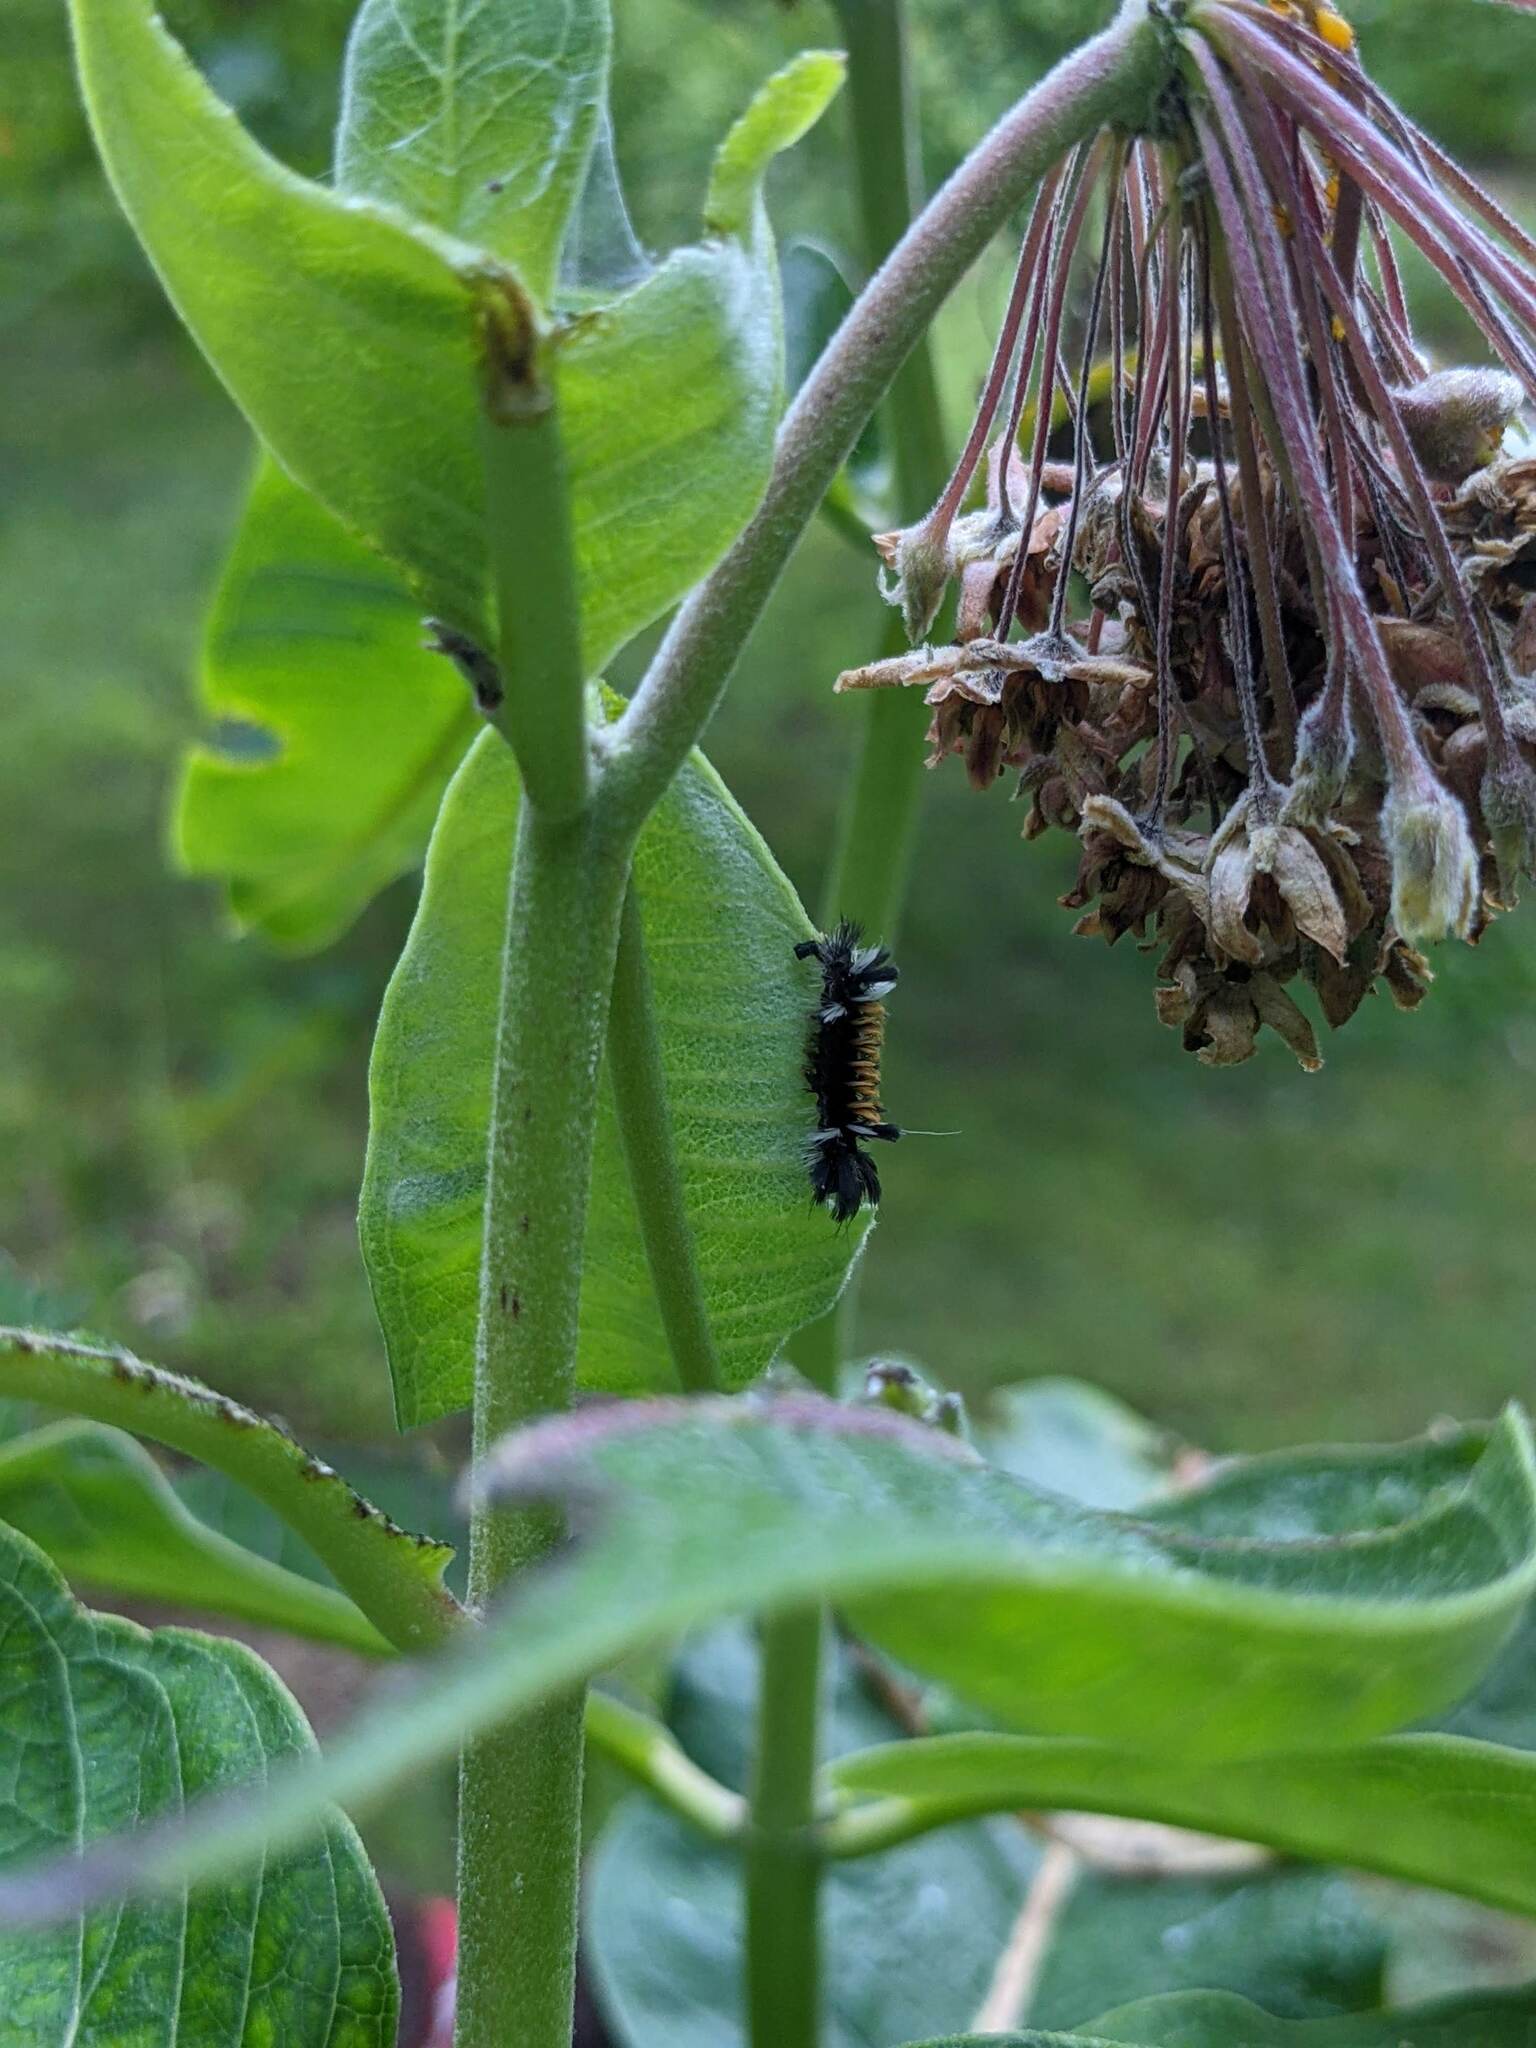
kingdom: Animalia
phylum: Arthropoda
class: Insecta
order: Lepidoptera
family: Erebidae
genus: Euchaetes
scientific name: Euchaetes egle
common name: Milkweed tussock moth
